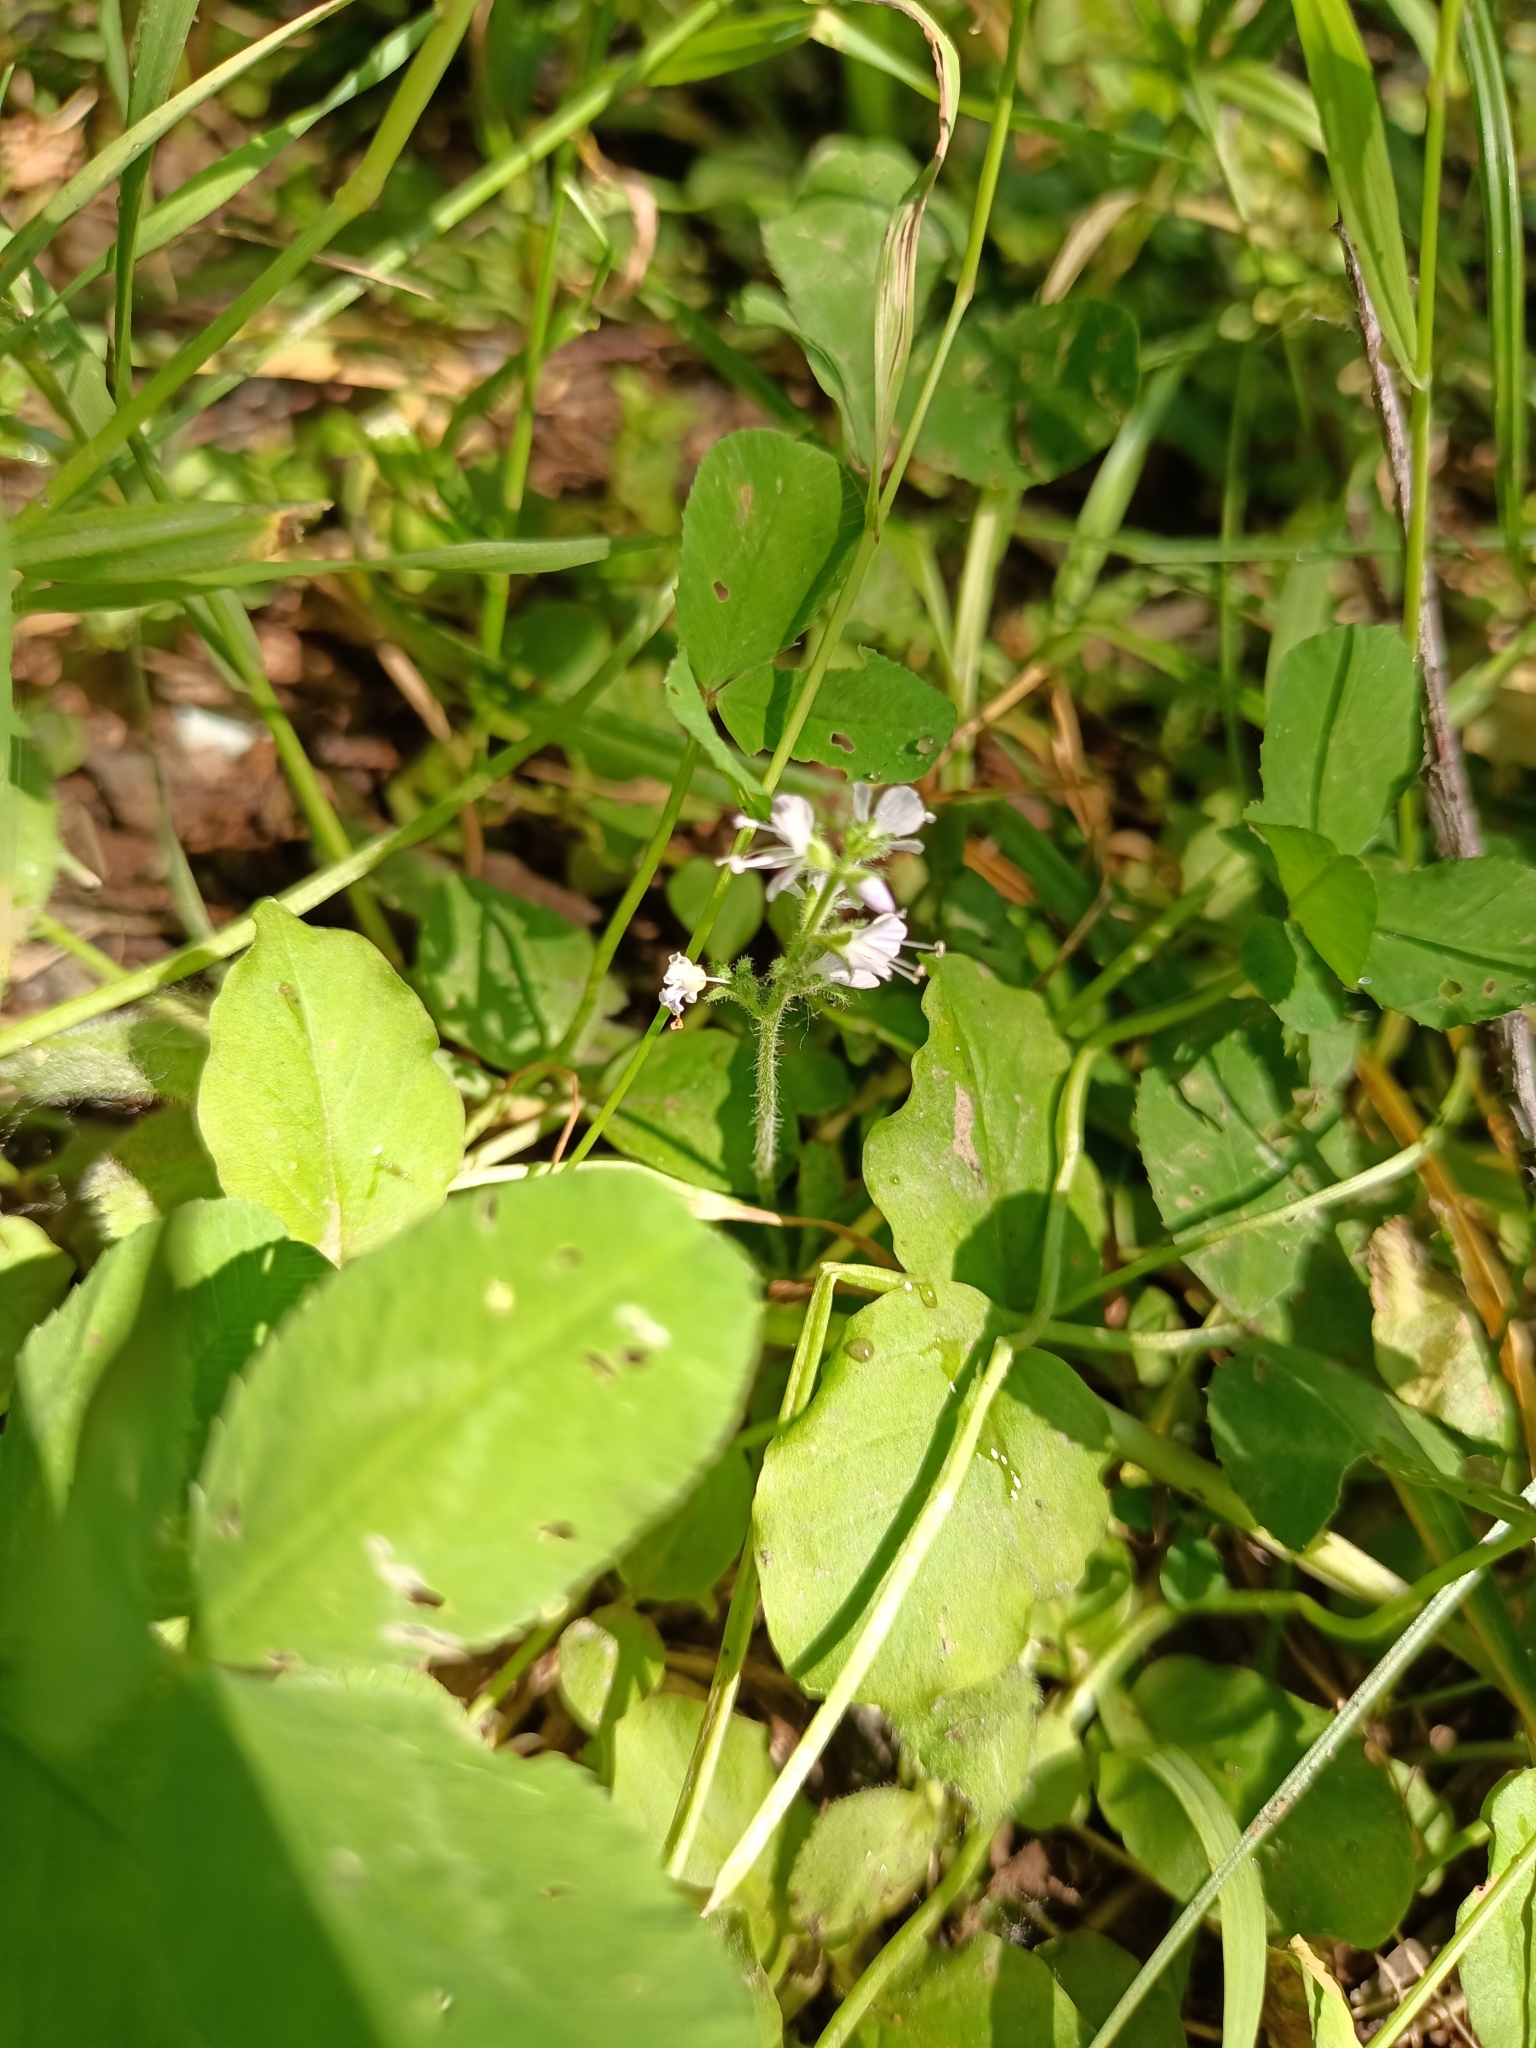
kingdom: Plantae
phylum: Tracheophyta
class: Magnoliopsida
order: Lamiales
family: Plantaginaceae
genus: Veronica
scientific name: Veronica officinalis
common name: Common speedwell
